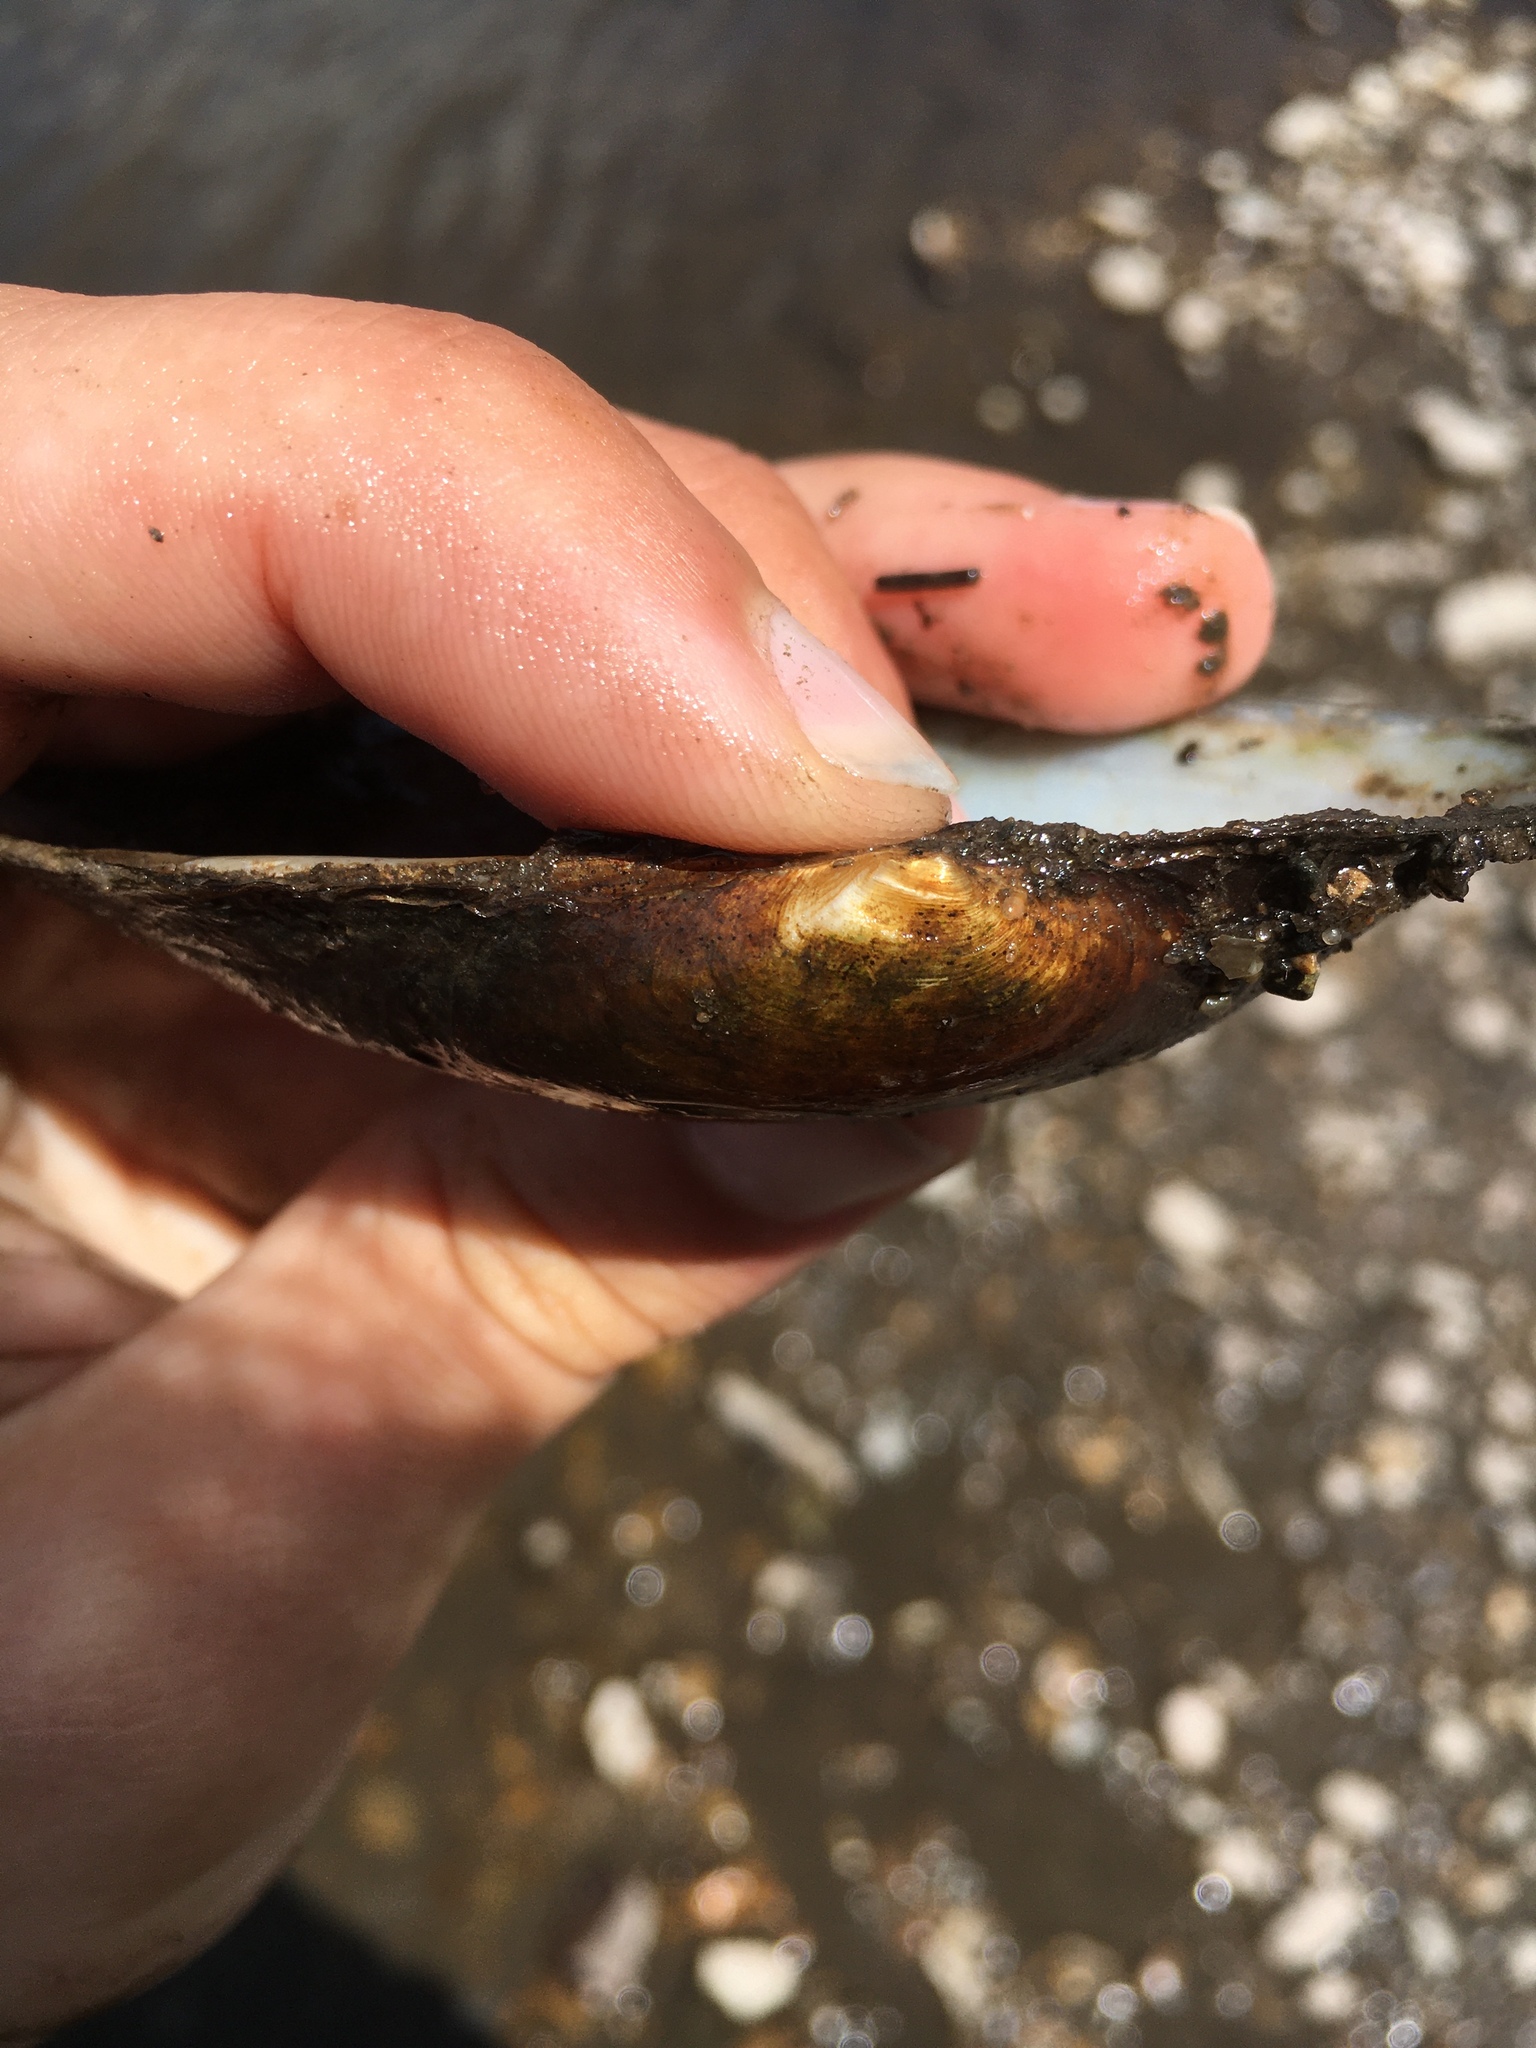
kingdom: Animalia
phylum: Mollusca
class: Bivalvia
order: Unionida
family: Unionidae
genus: Strophitus
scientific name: Strophitus undulatus
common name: Creeper
